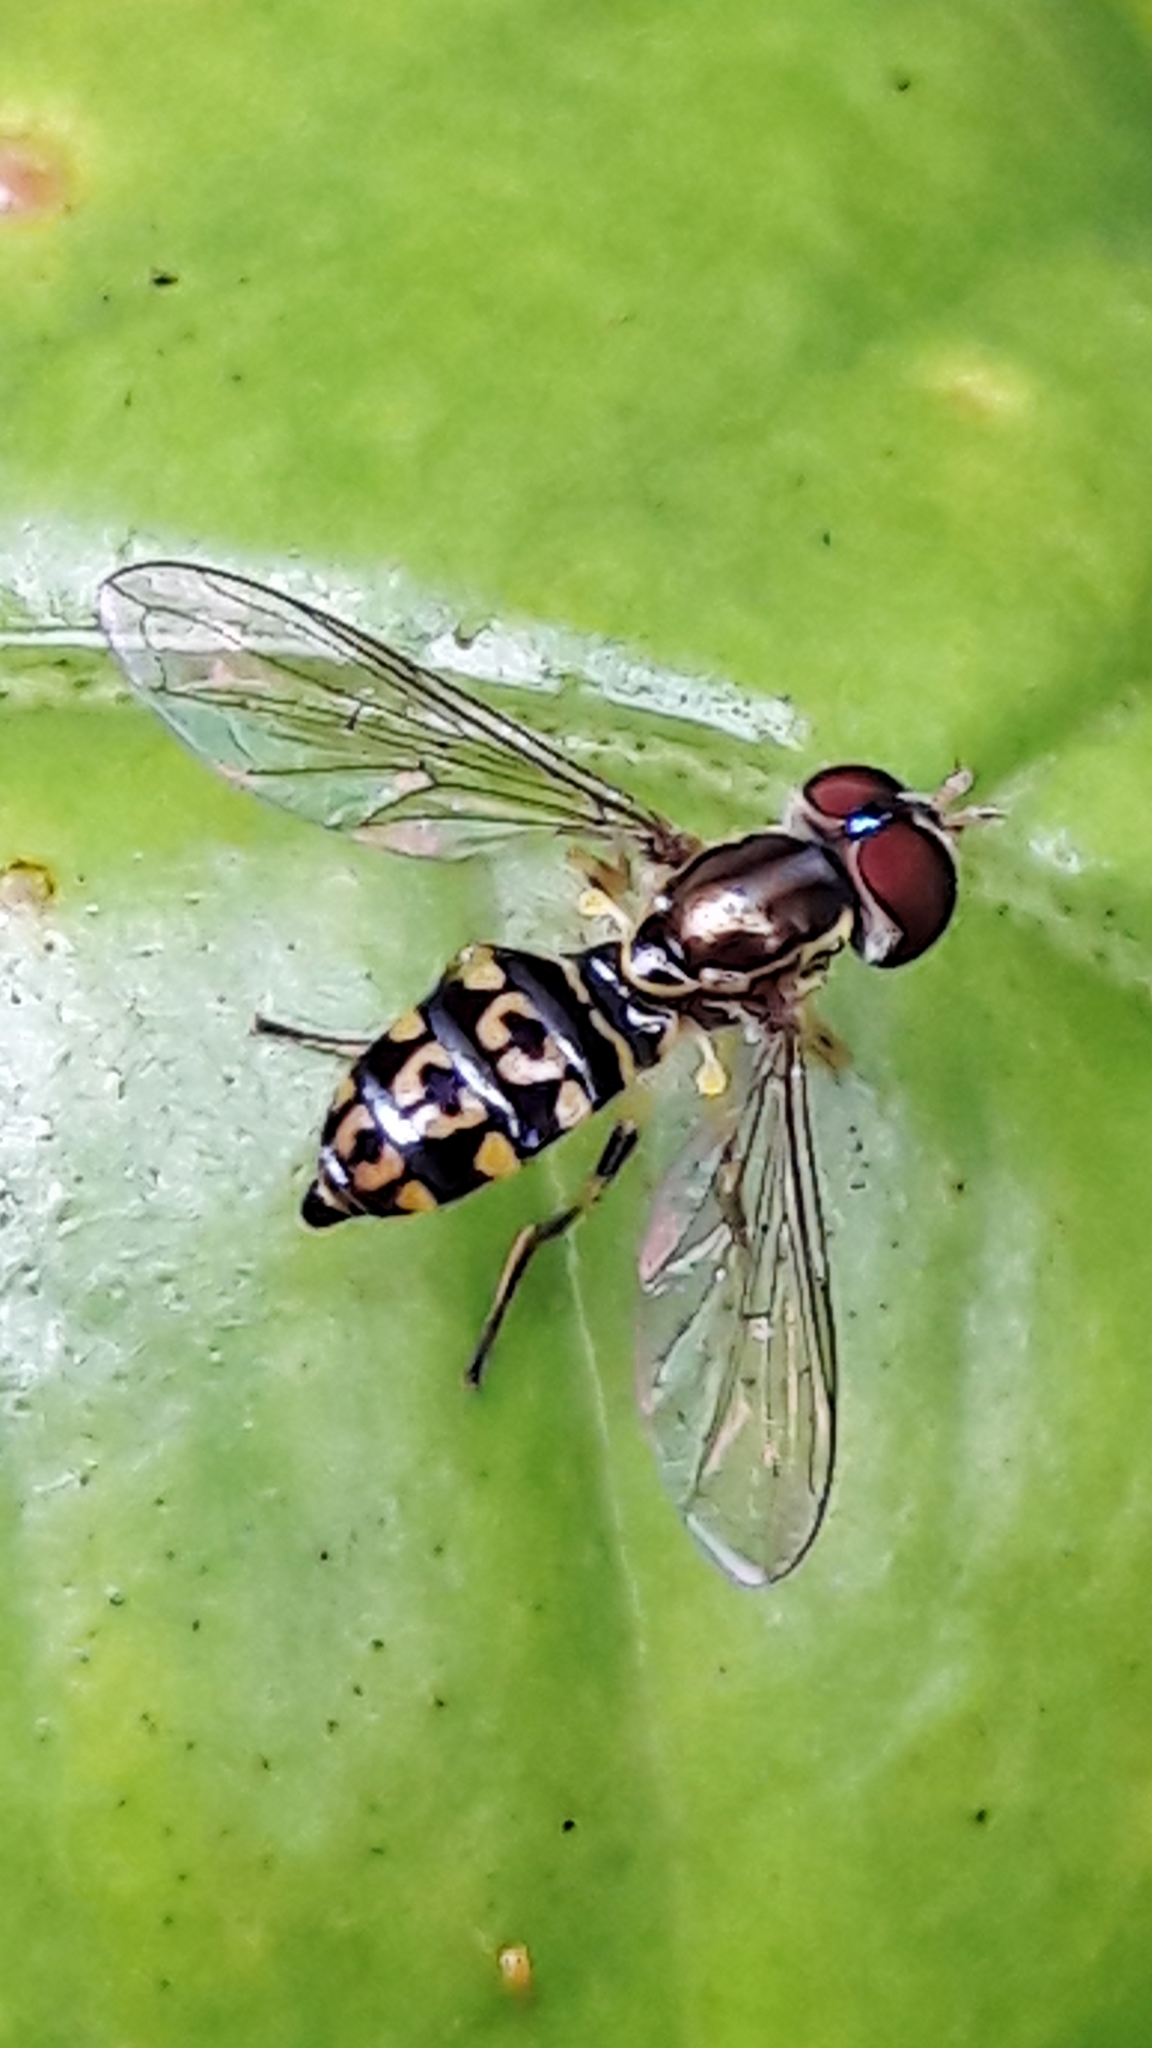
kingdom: Animalia
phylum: Arthropoda
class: Insecta
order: Diptera
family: Syrphidae
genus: Toxomerus
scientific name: Toxomerus virgulatus
